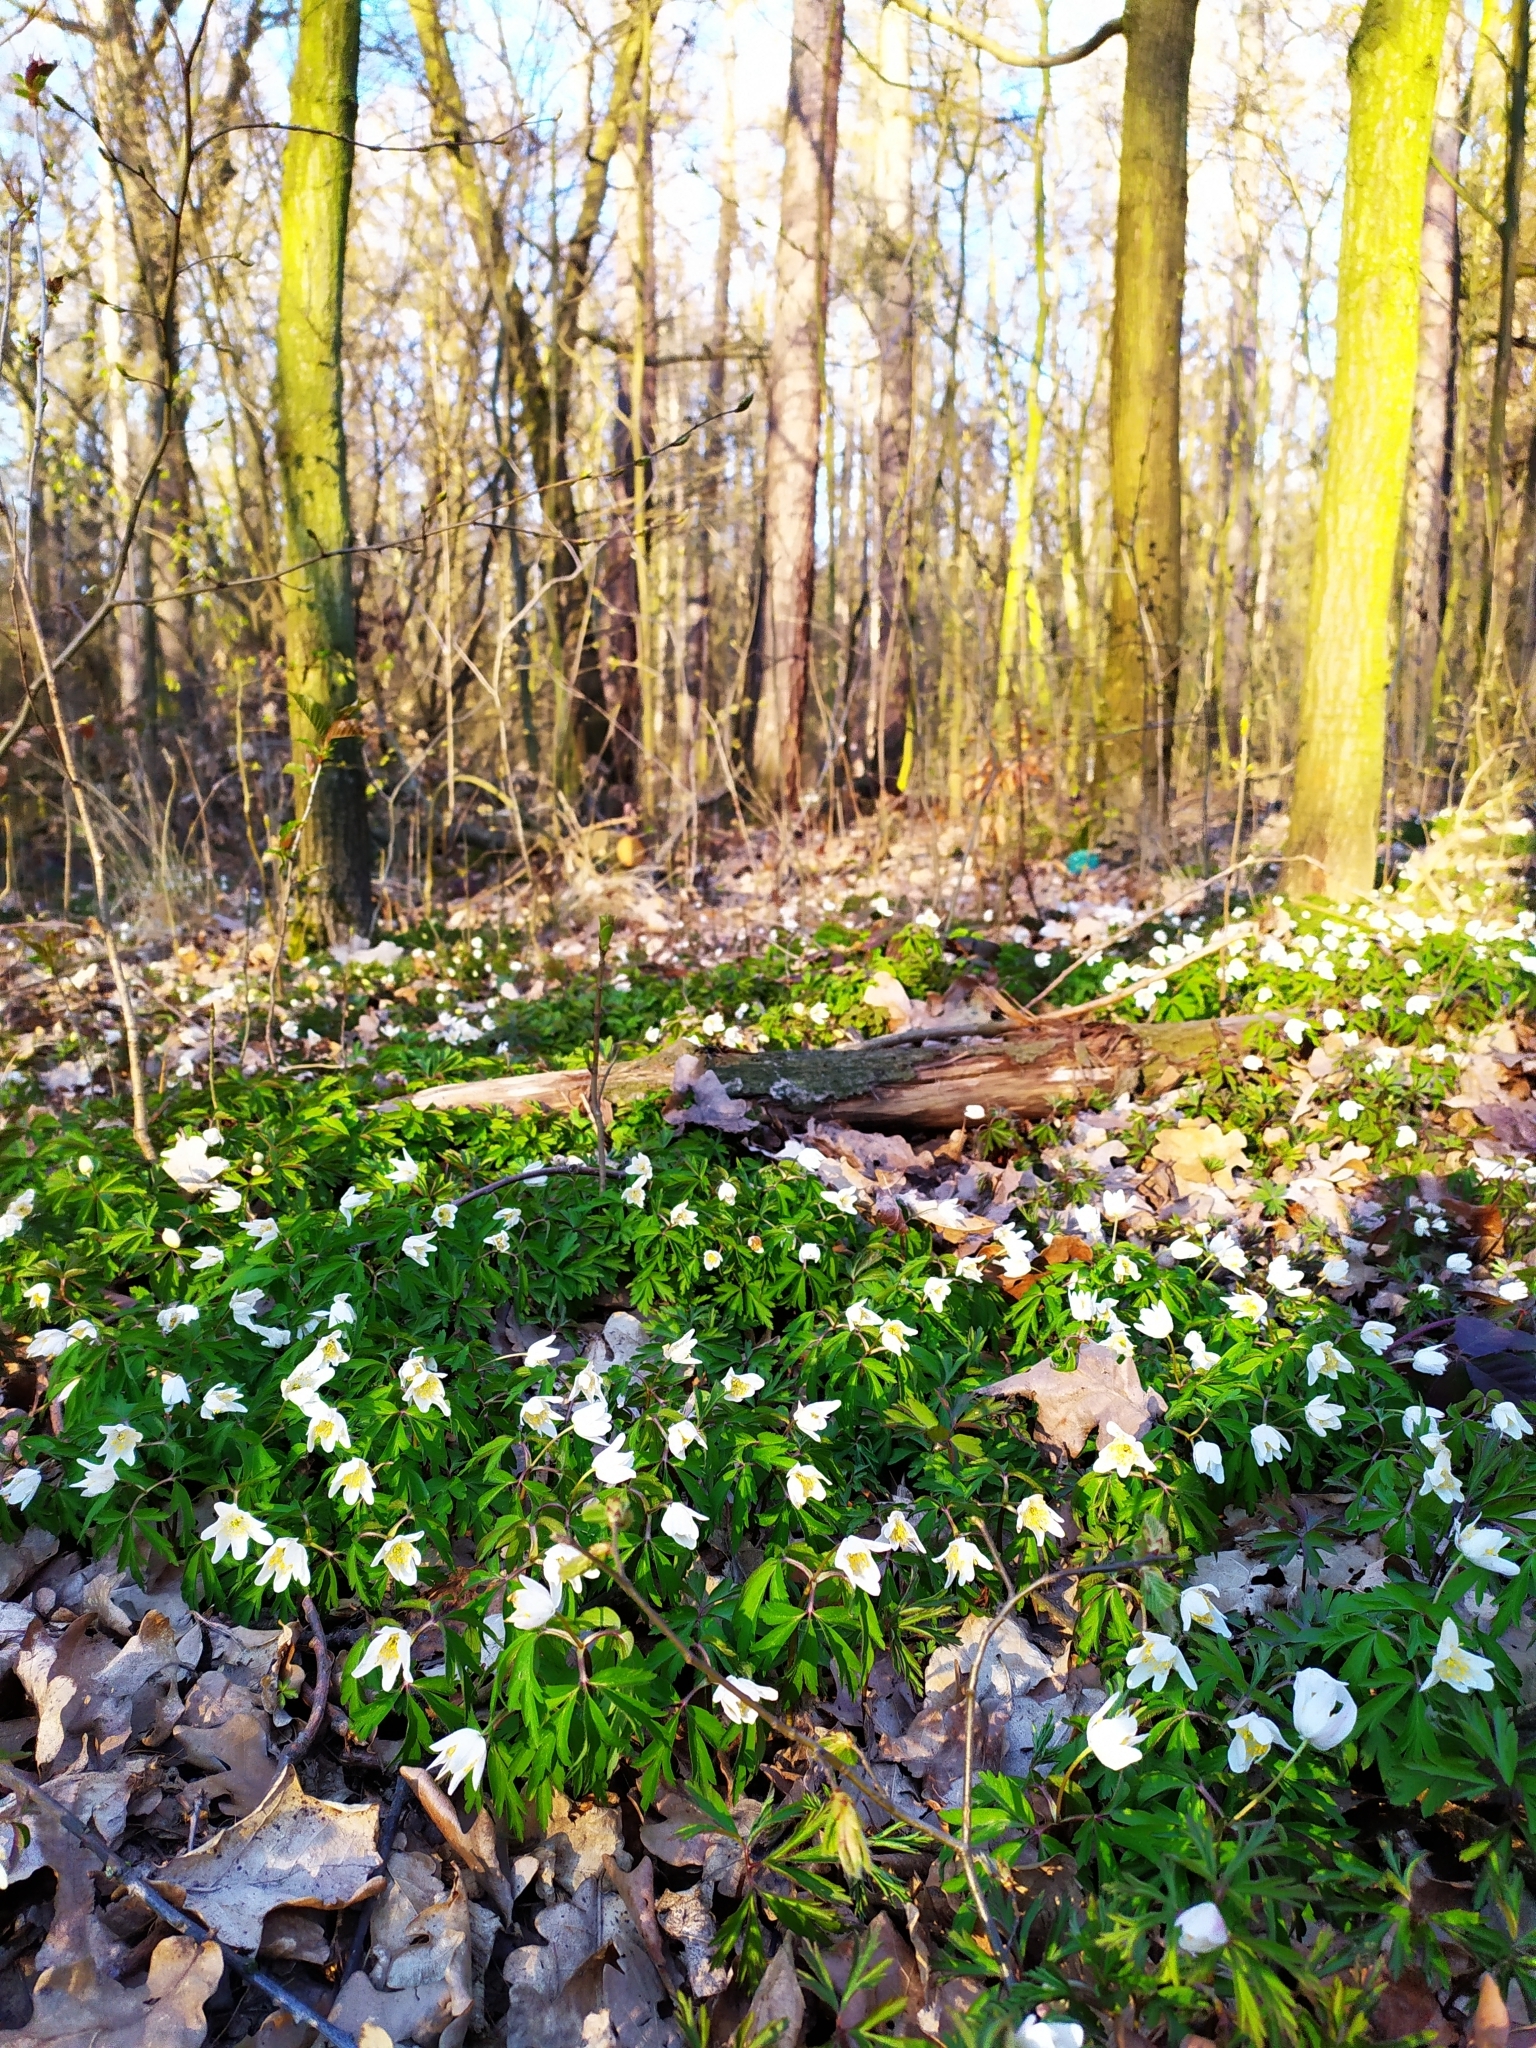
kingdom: Plantae
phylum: Tracheophyta
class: Magnoliopsida
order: Ranunculales
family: Ranunculaceae
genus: Anemone
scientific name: Anemone nemorosa
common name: Wood anemone
